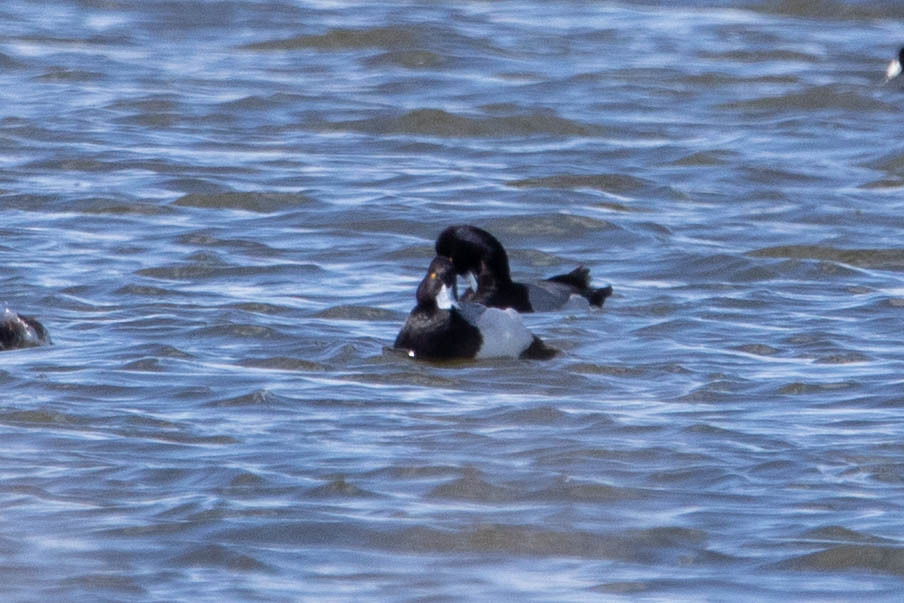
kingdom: Animalia
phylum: Chordata
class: Aves
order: Anseriformes
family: Anatidae
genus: Aythya
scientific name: Aythya affinis
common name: Lesser scaup
